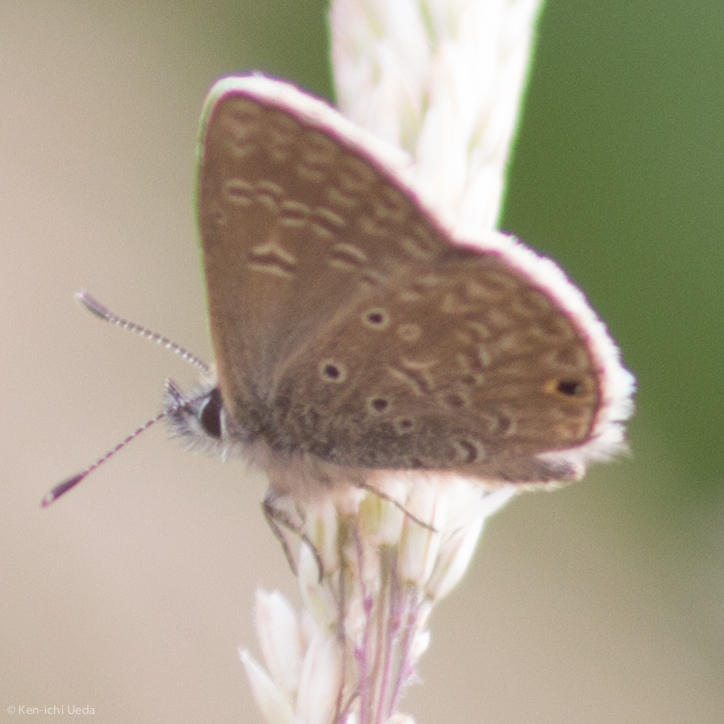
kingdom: Animalia
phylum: Arthropoda
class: Insecta
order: Lepidoptera
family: Lycaenidae
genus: Hemiargus
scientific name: Hemiargus hanno
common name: Common blue
